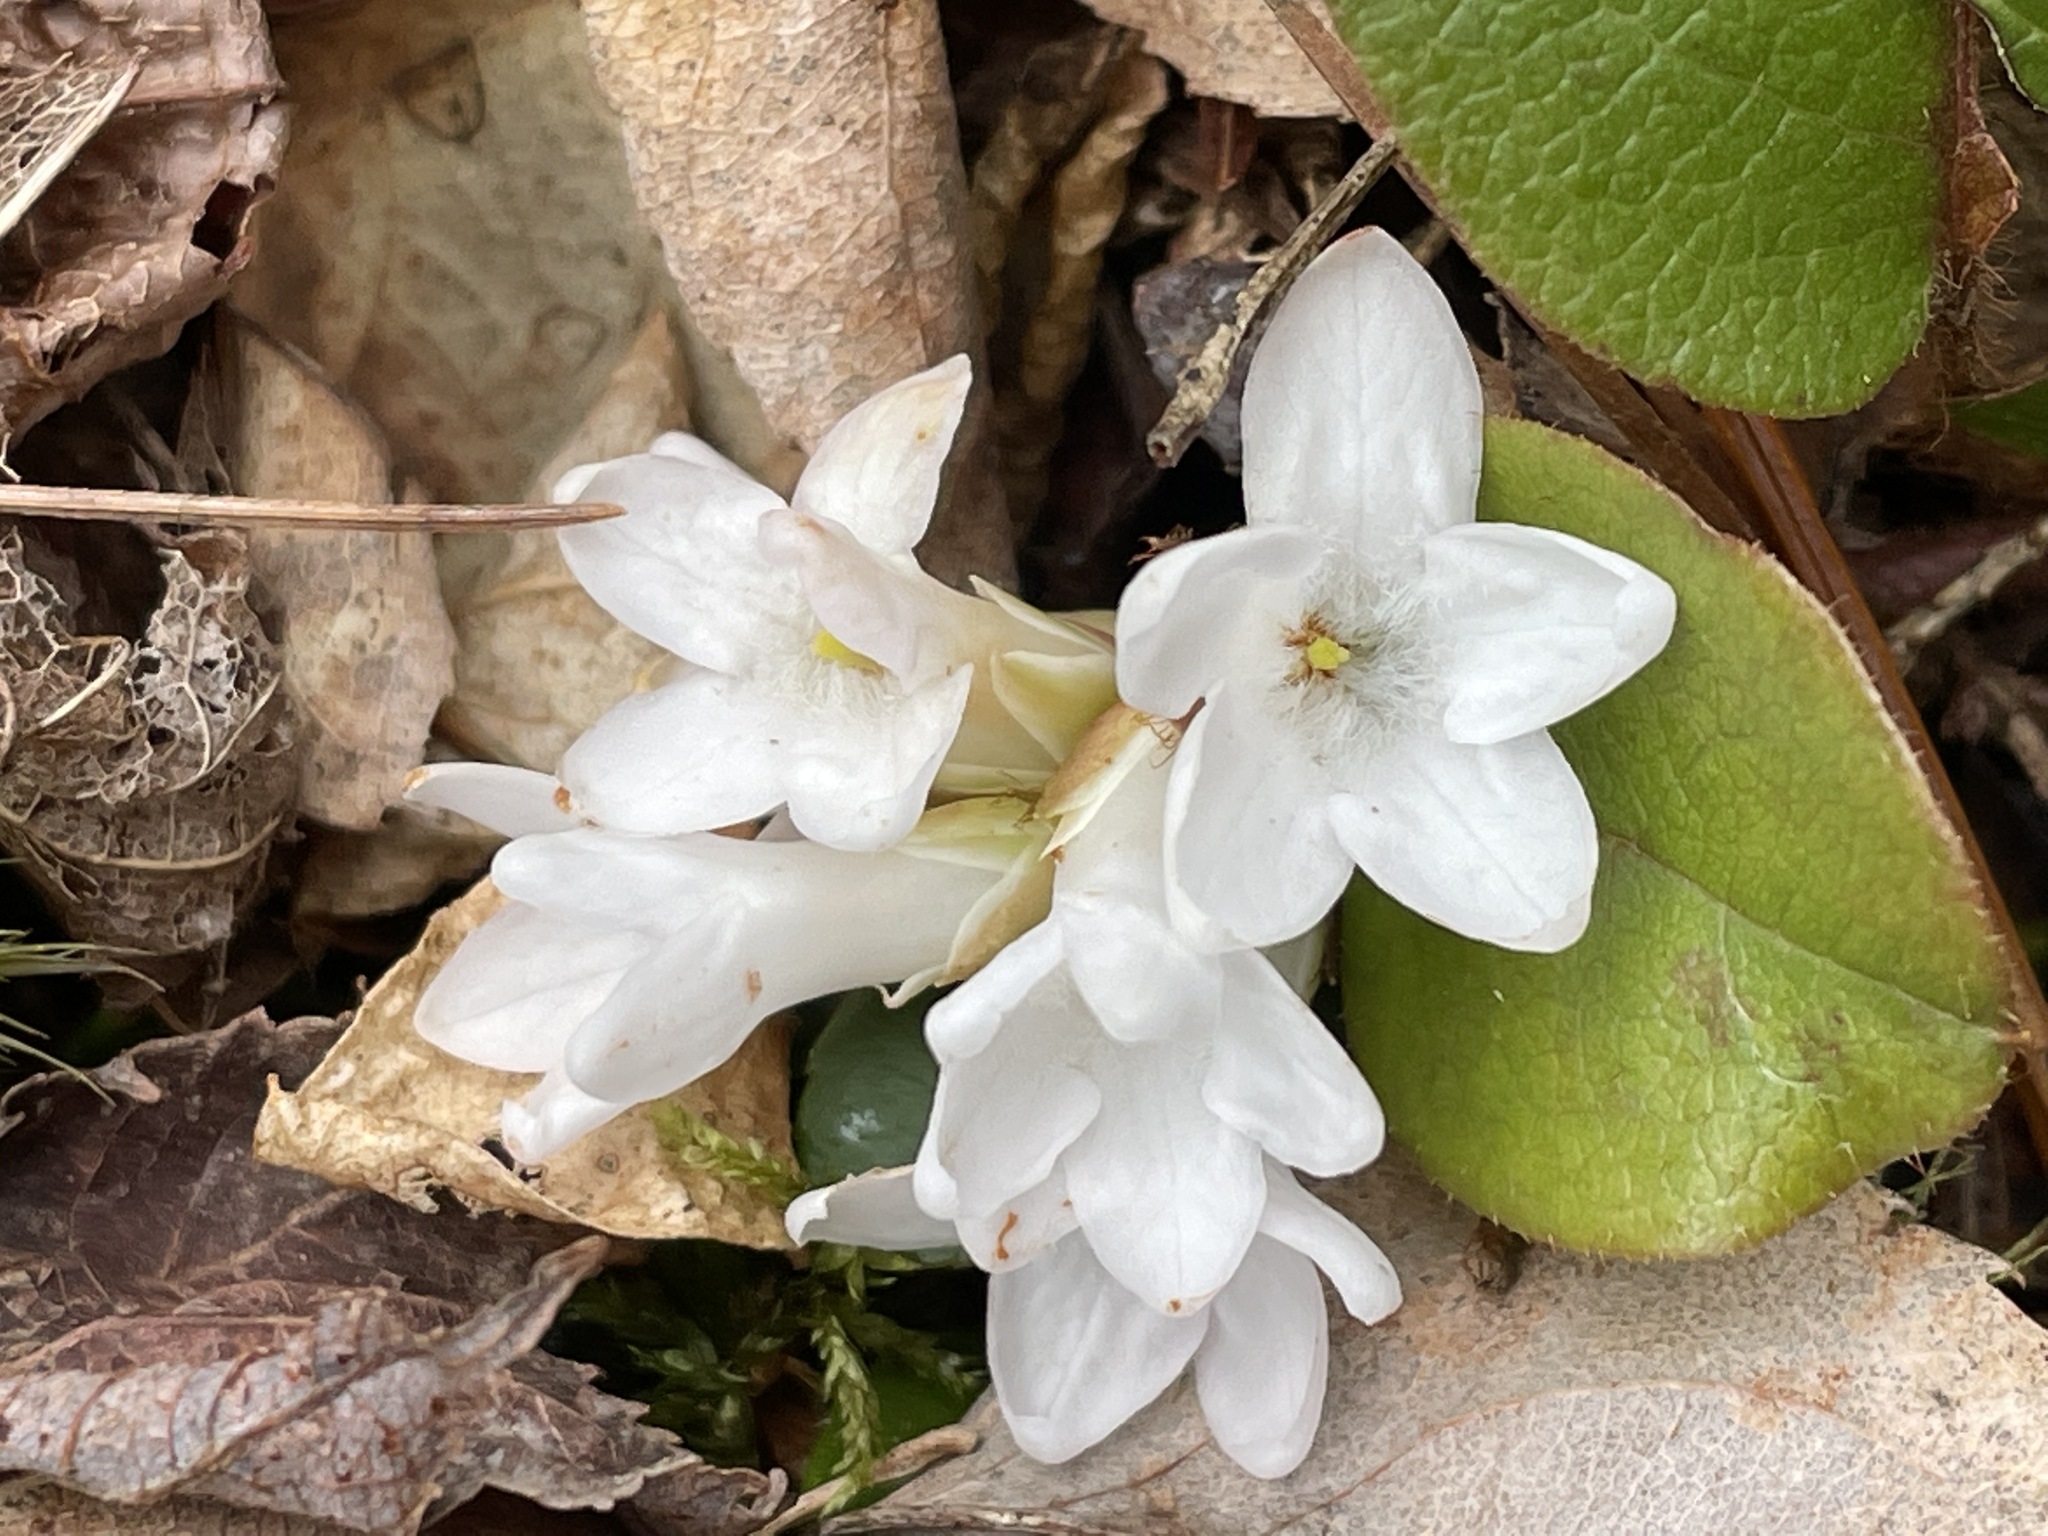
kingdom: Plantae
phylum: Tracheophyta
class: Magnoliopsida
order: Ericales
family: Ericaceae
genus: Epigaea
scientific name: Epigaea repens
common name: Gravelroot
